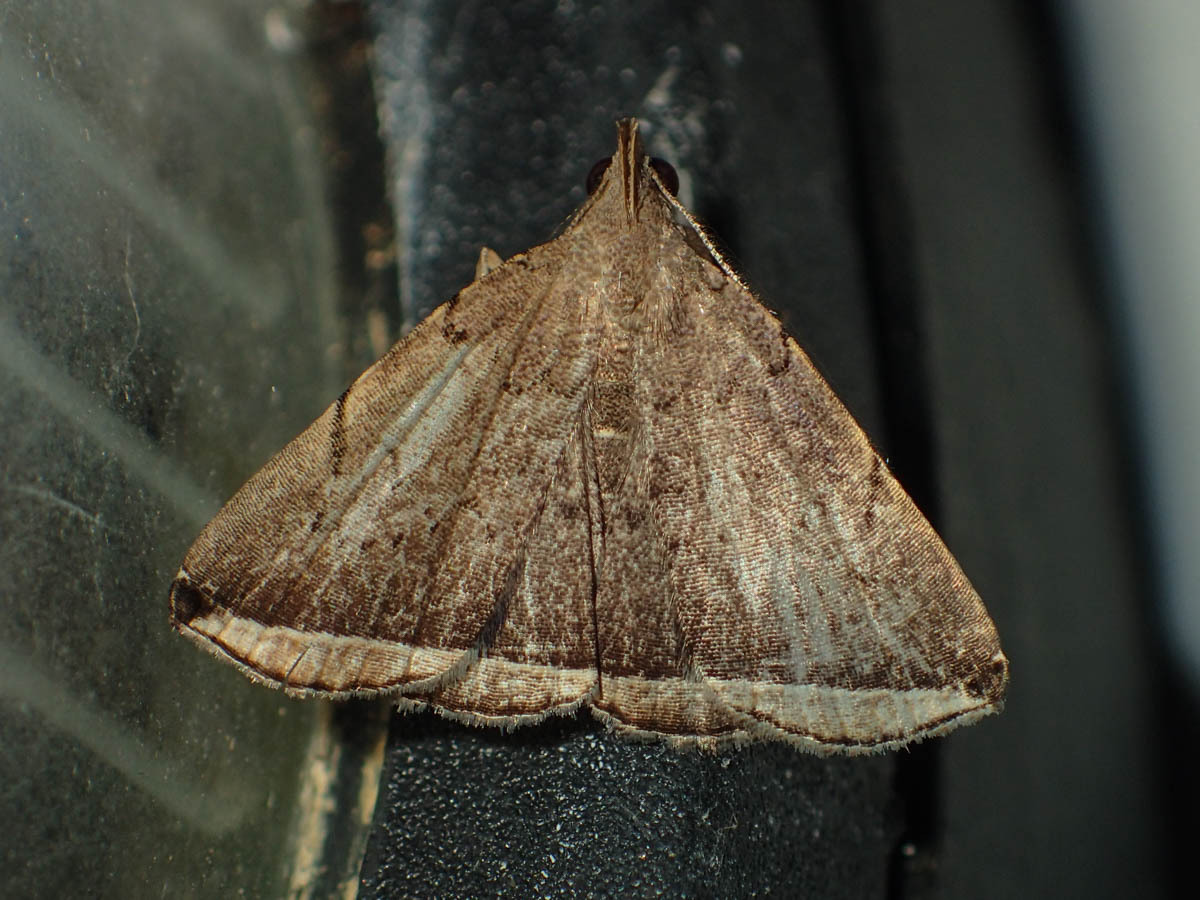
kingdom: Animalia
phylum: Arthropoda
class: Insecta
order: Lepidoptera
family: Erebidae
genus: Lysimelia
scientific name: Lysimelia alstoni
